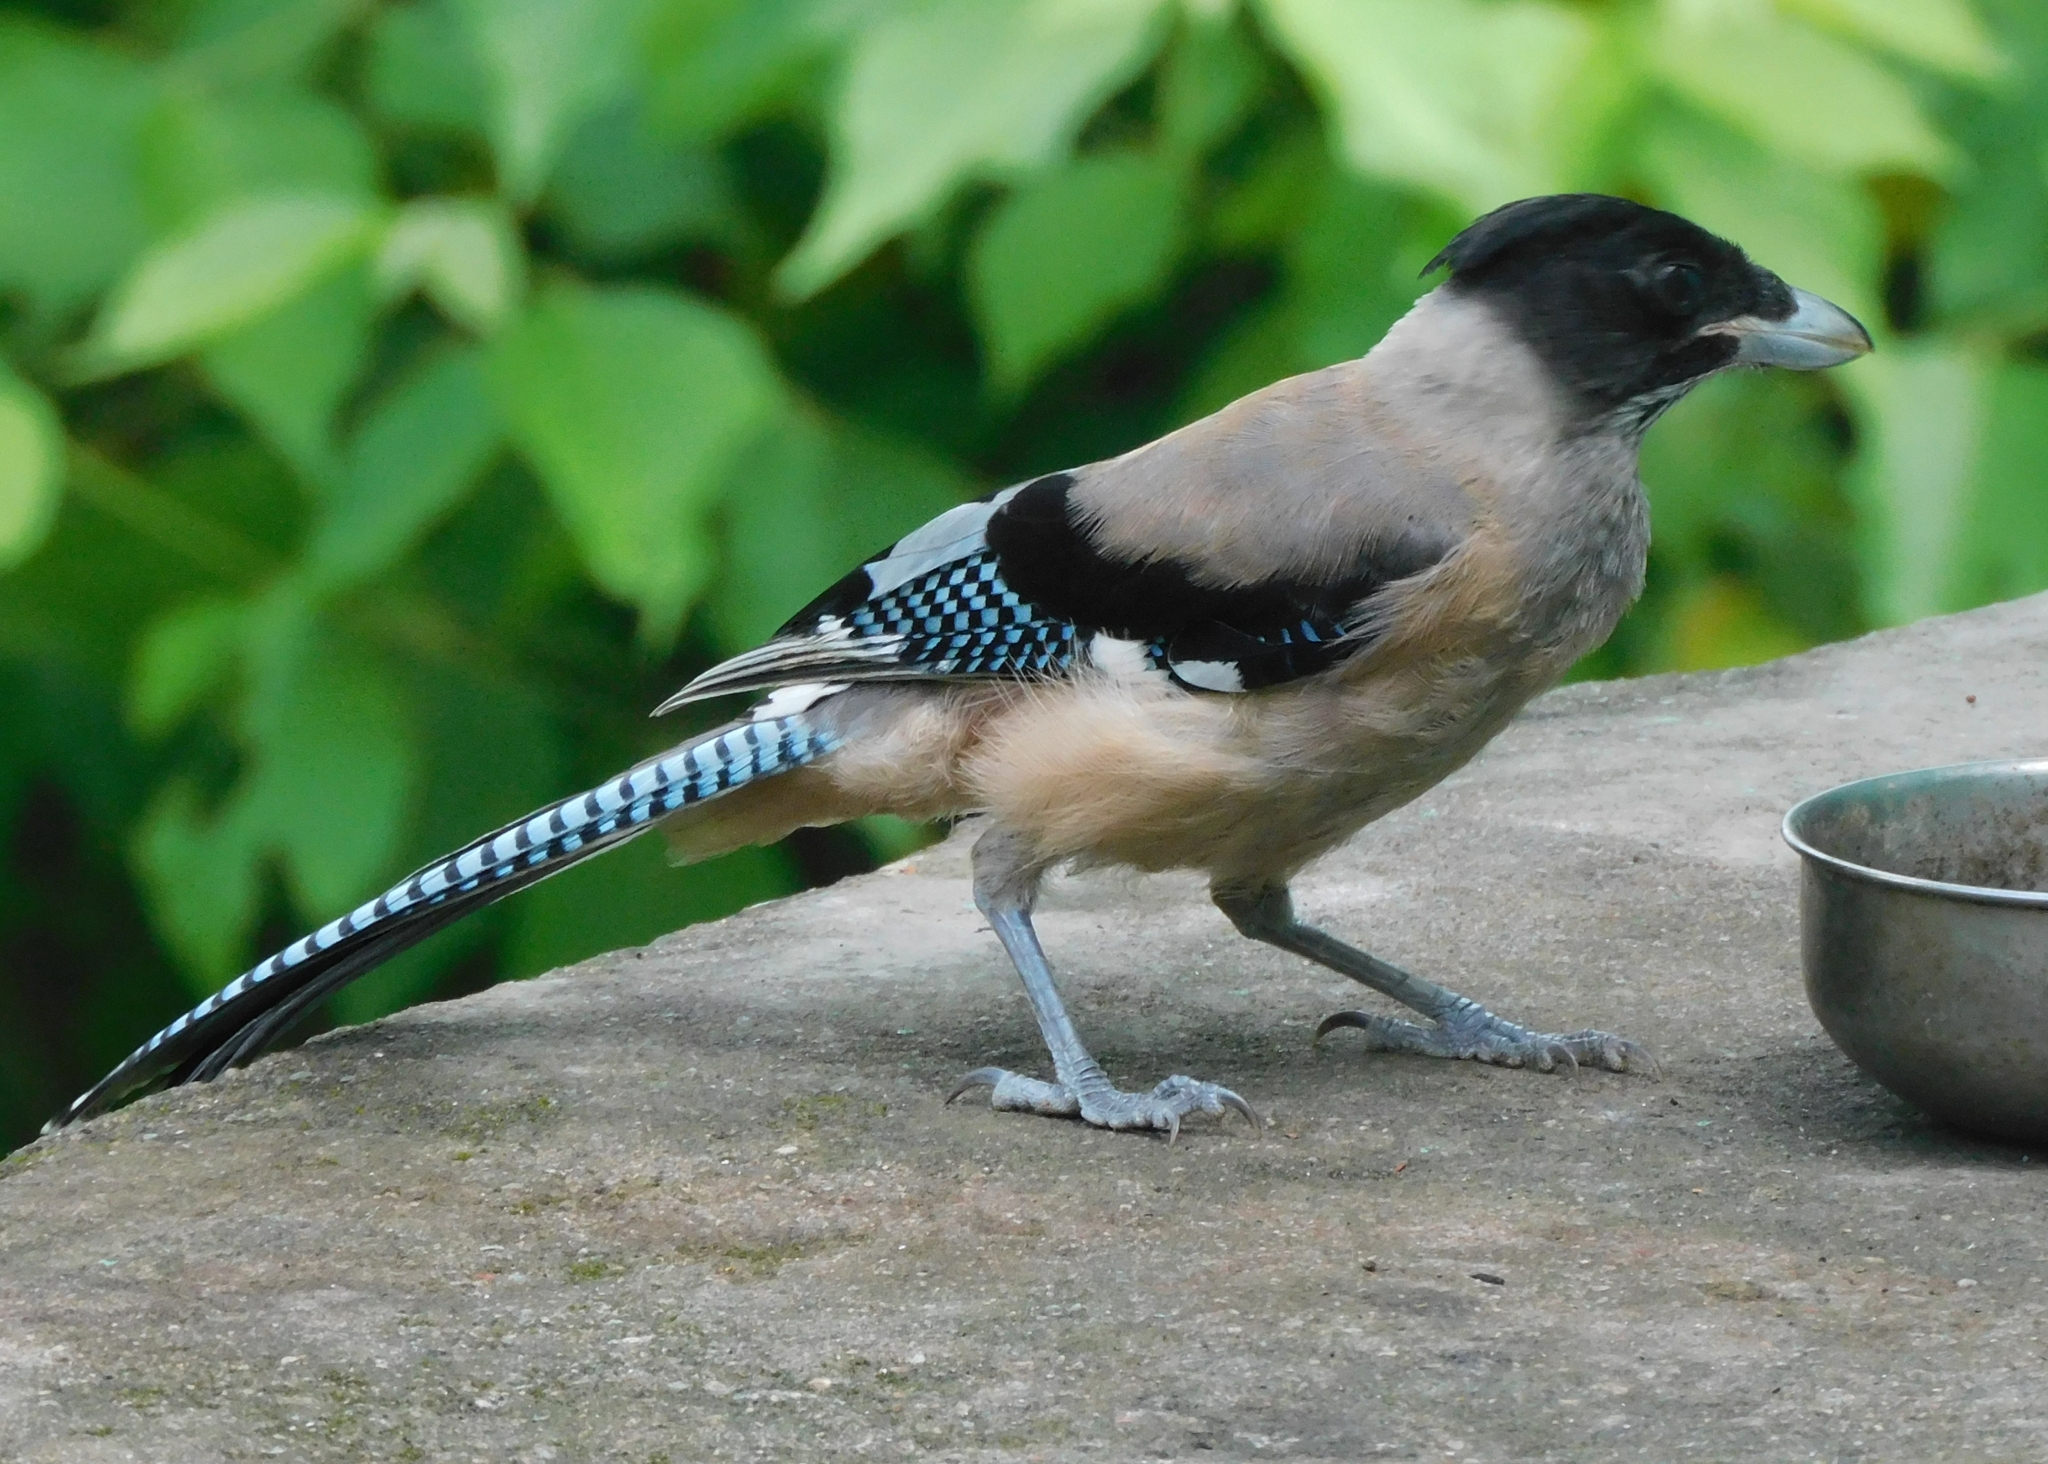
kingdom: Animalia
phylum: Chordata
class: Aves
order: Passeriformes
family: Corvidae
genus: Garrulus
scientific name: Garrulus lanceolatus
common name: Black-headed jay
